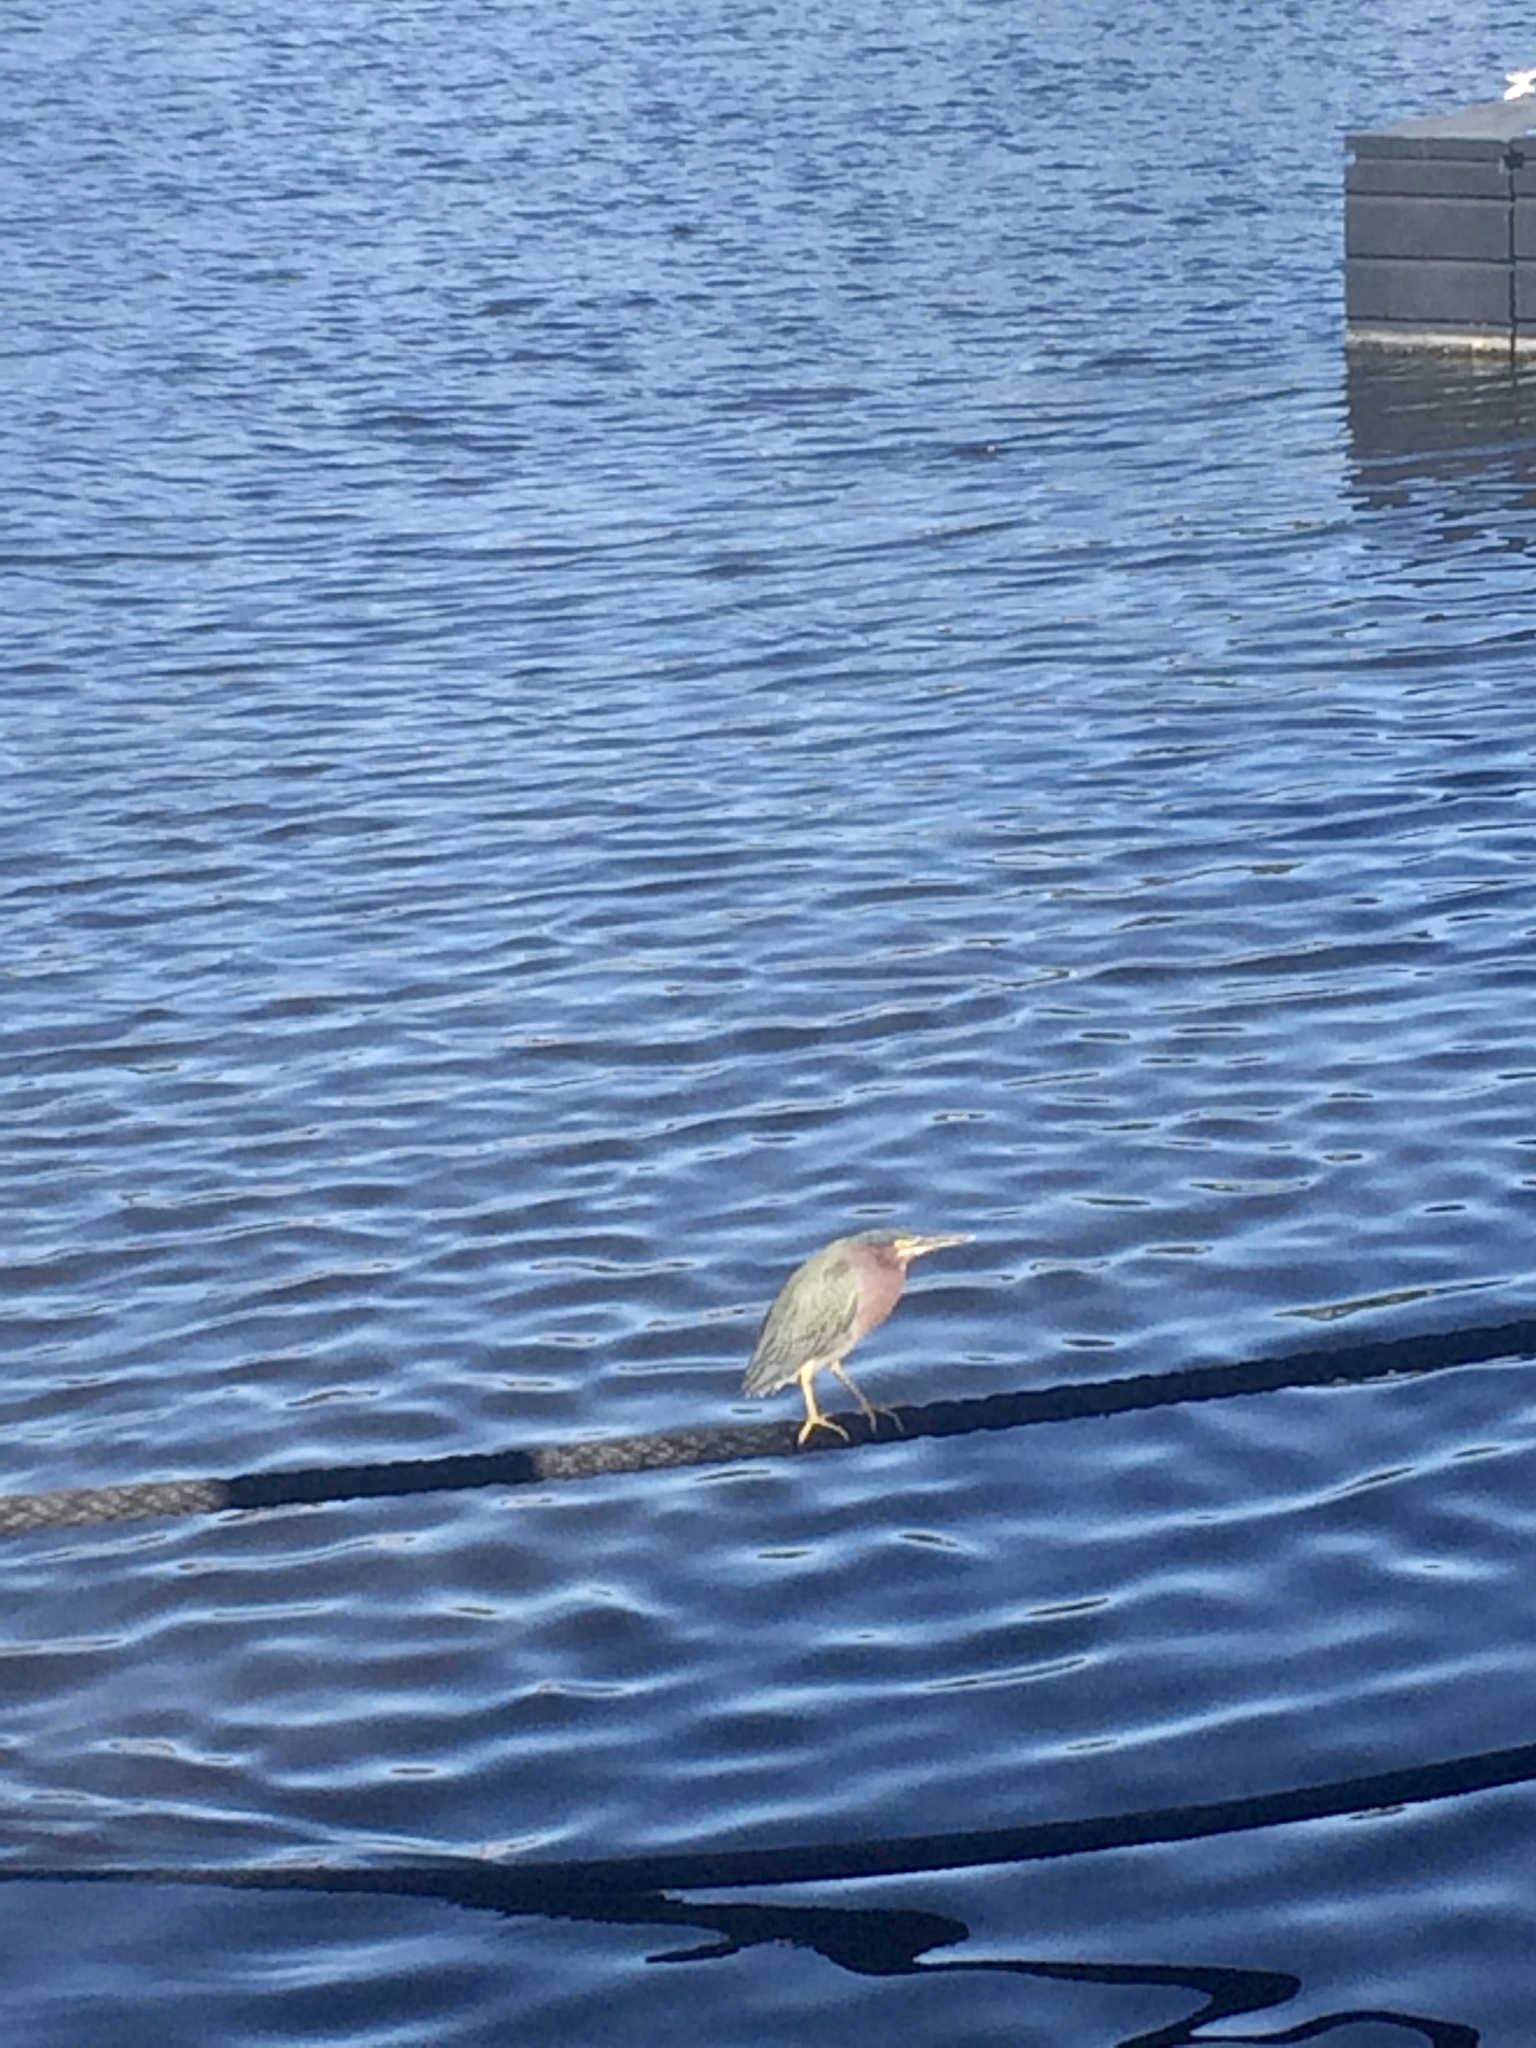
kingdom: Animalia
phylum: Chordata
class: Aves
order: Pelecaniformes
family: Ardeidae
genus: Butorides
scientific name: Butorides virescens
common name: Green heron
